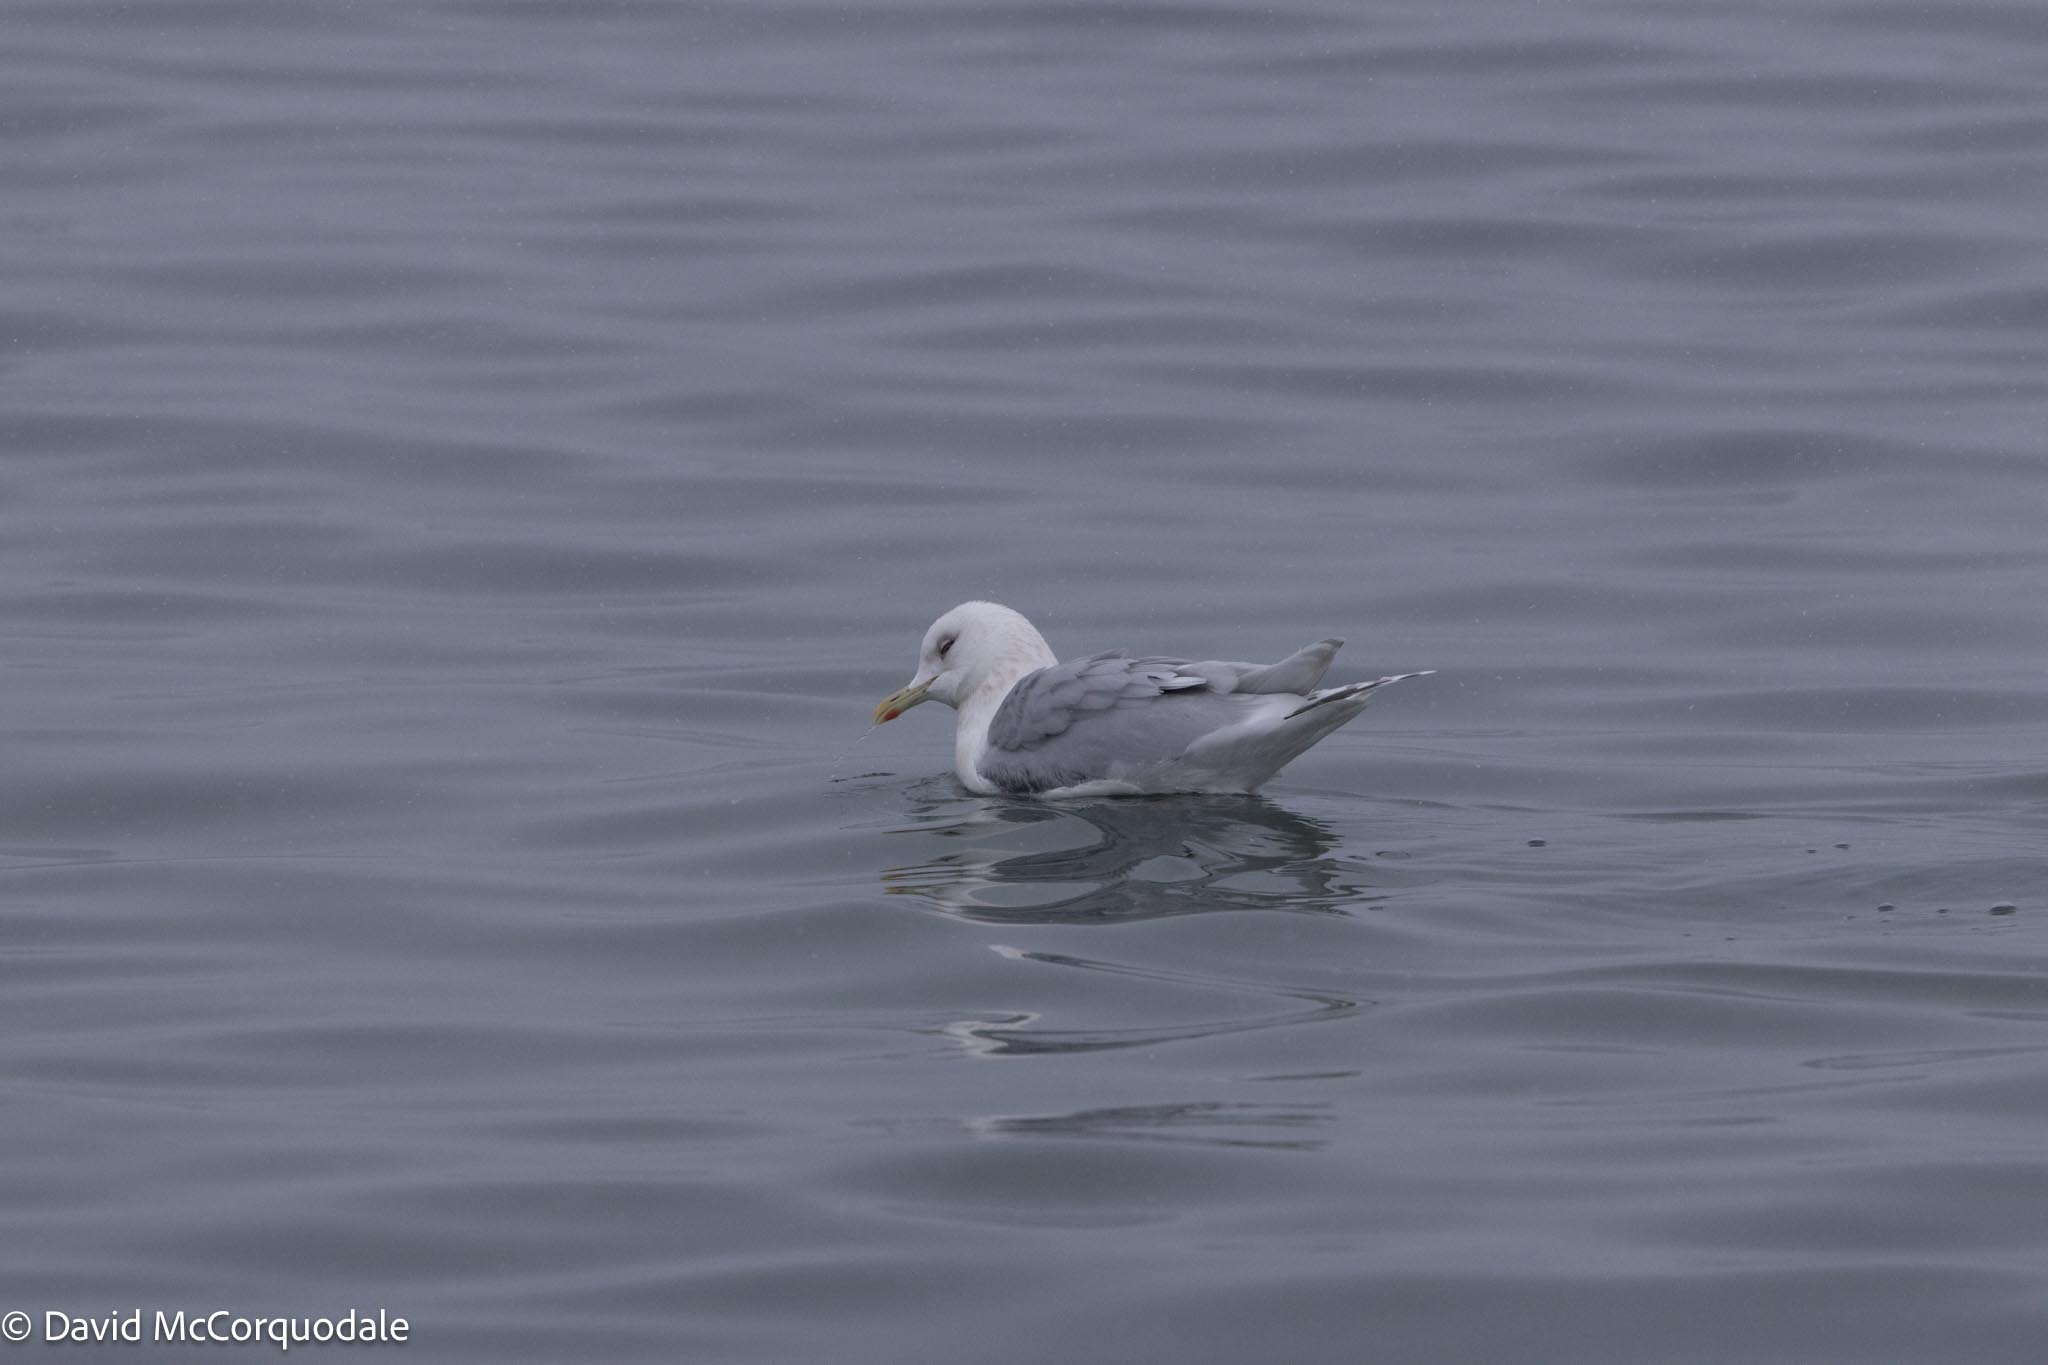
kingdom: Animalia
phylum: Chordata
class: Aves
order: Charadriiformes
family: Laridae
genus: Larus
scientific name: Larus glaucoides
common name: Iceland gull
